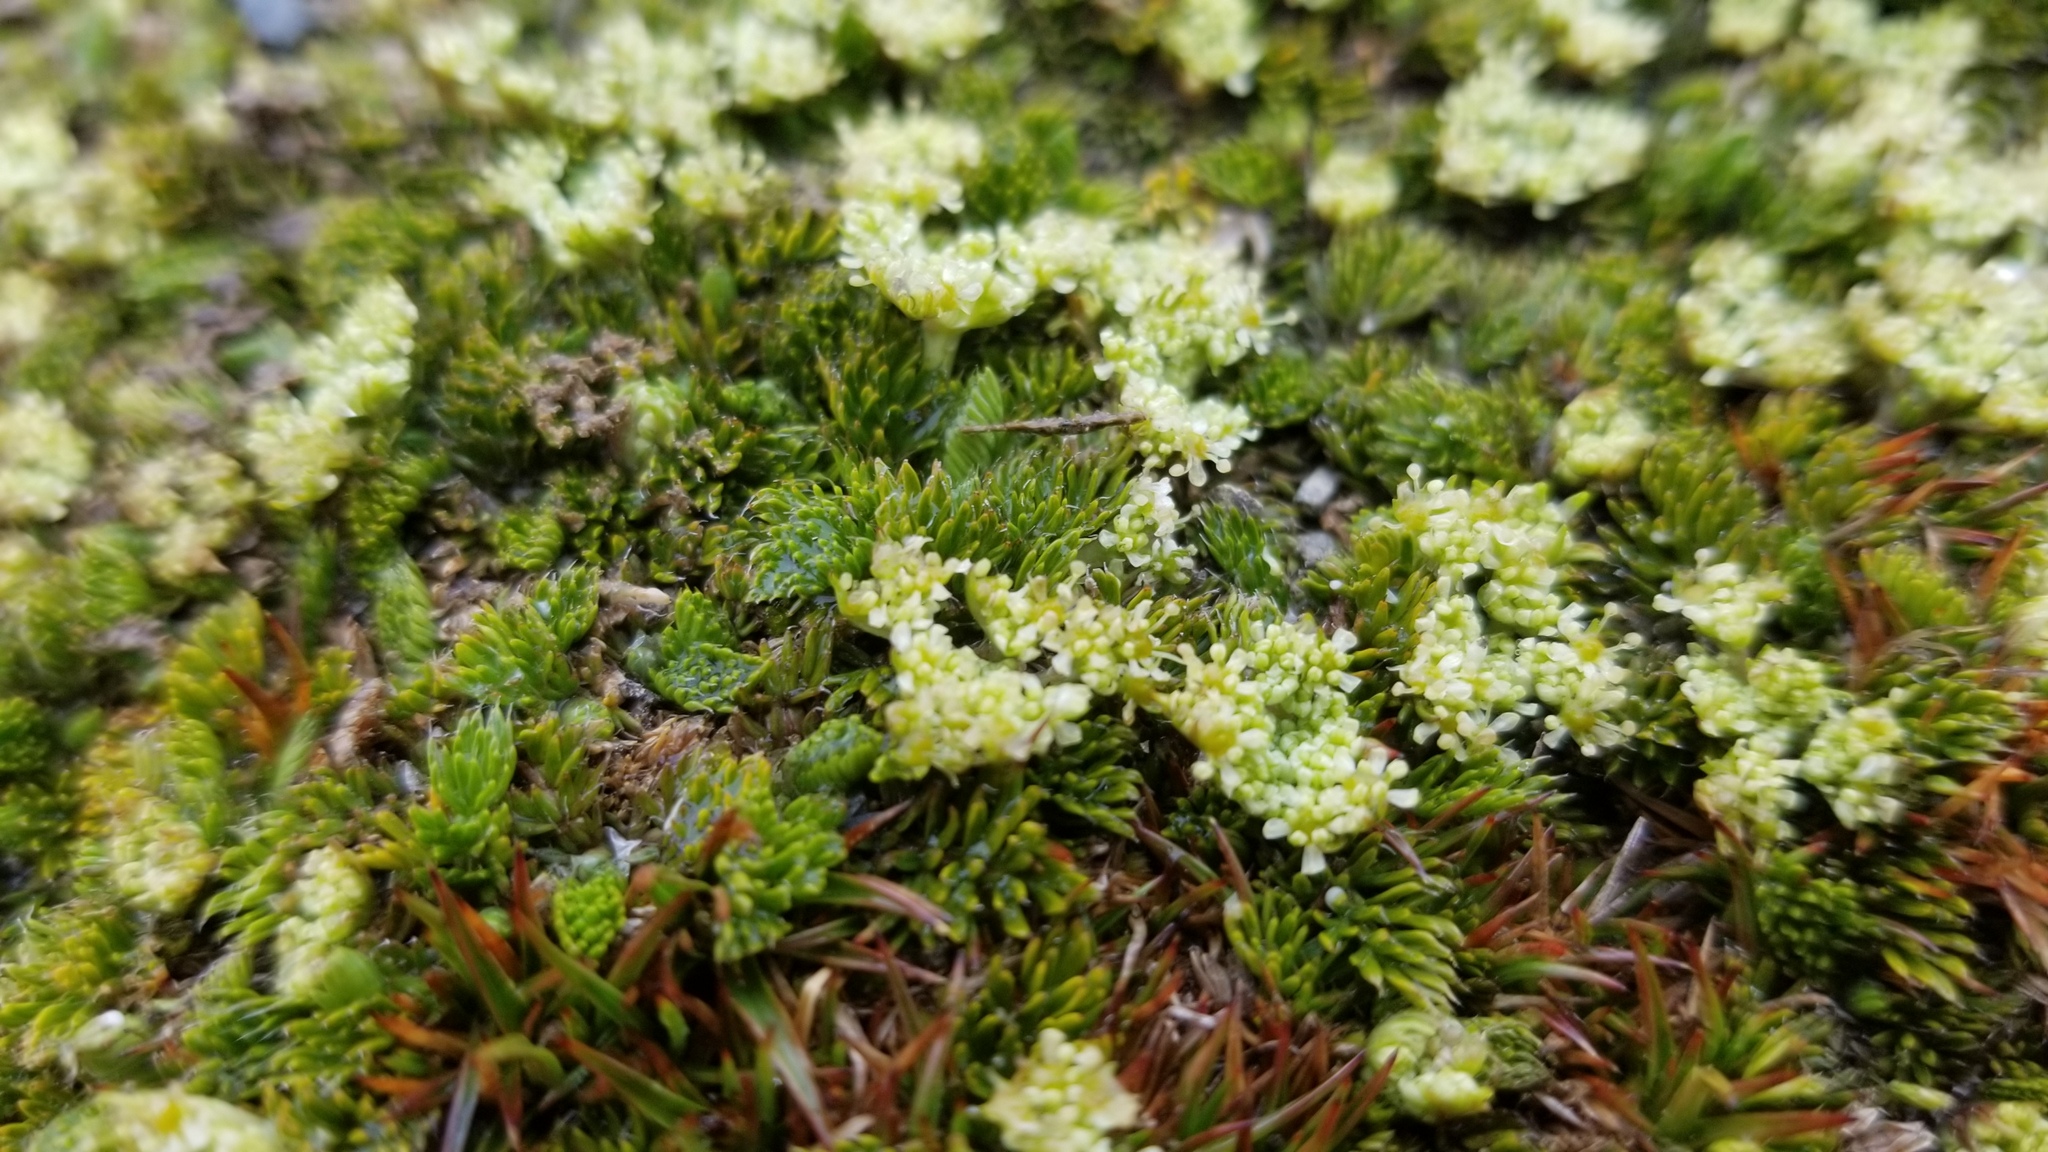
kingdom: Plantae
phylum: Tracheophyta
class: Magnoliopsida
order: Apiales
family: Apiaceae
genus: Anisotome
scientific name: Anisotome imbricata
